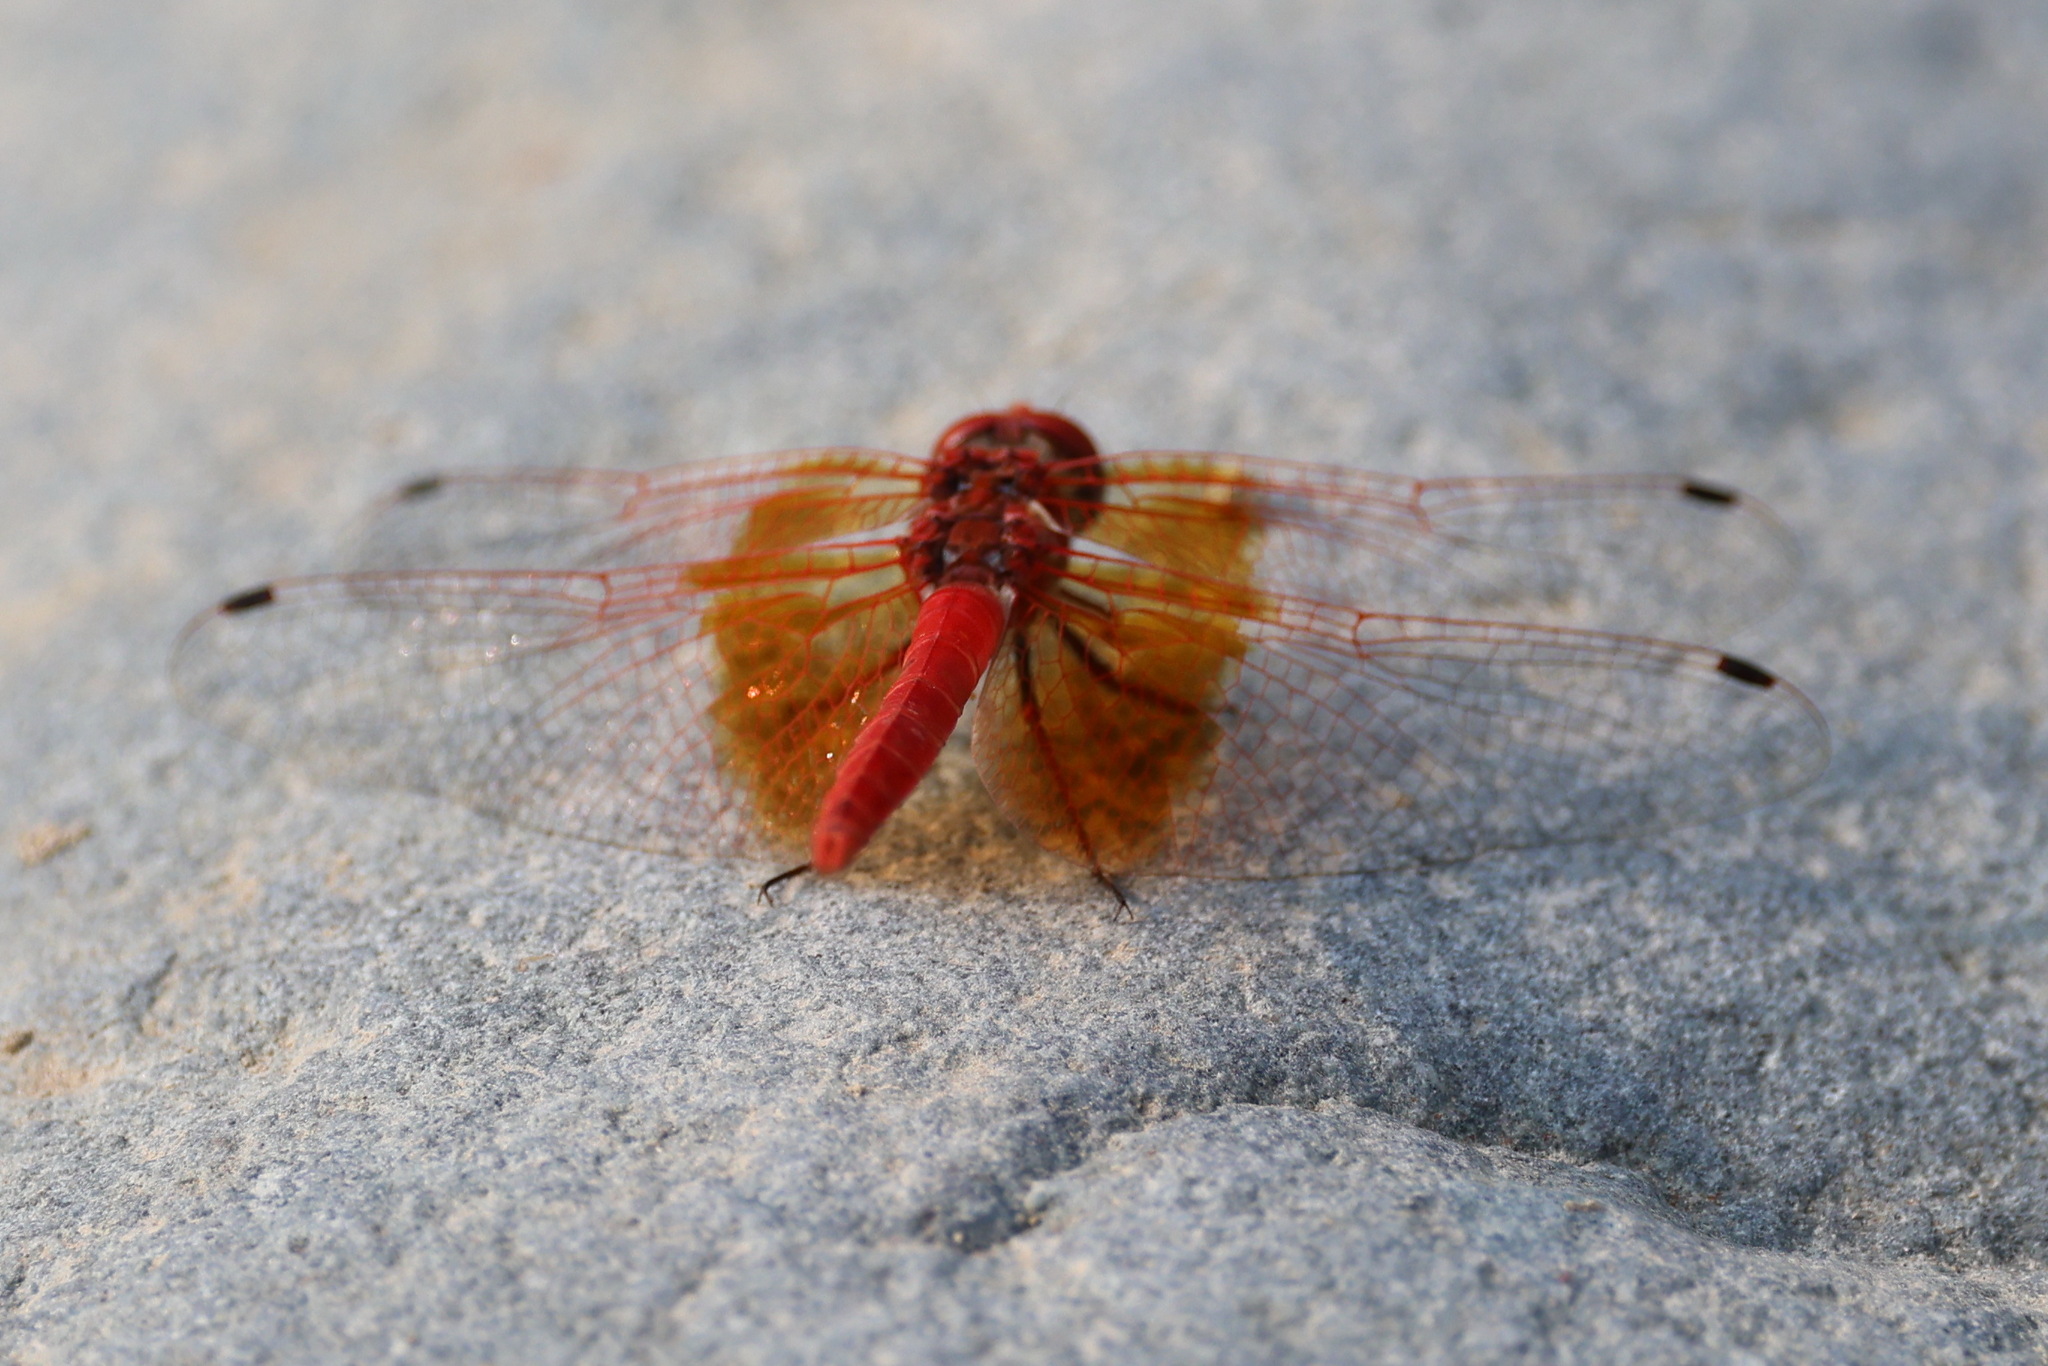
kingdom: Animalia
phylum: Arthropoda
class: Insecta
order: Odonata
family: Libellulidae
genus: Trithemis
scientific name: Trithemis kirbyi
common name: Kirby's dropwing
